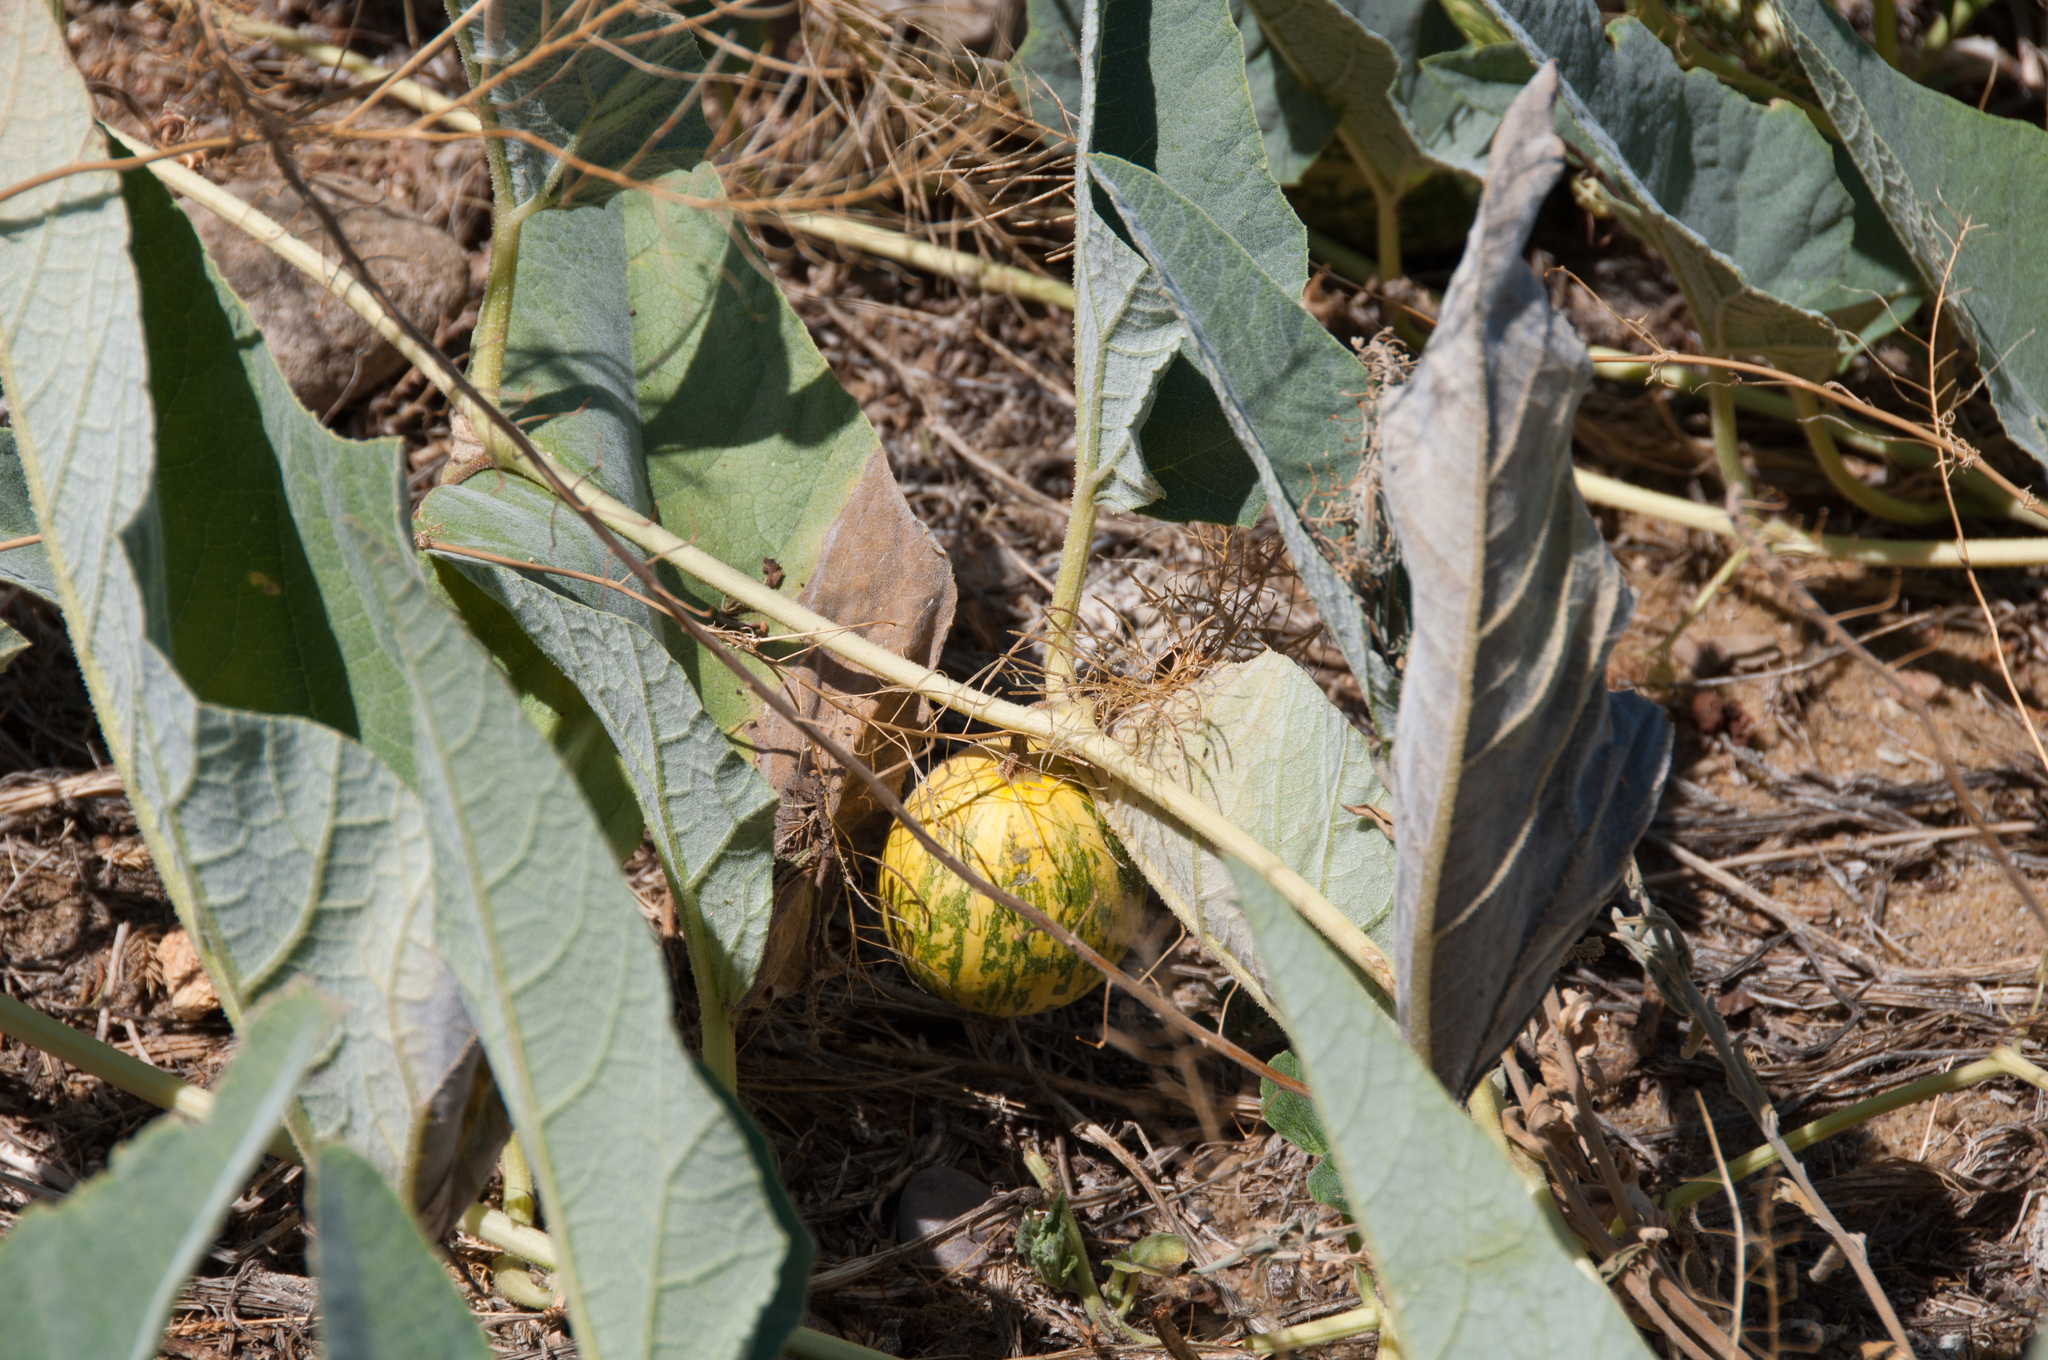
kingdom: Plantae
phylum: Tracheophyta
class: Magnoliopsida
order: Cucurbitales
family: Cucurbitaceae
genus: Cucurbita
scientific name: Cucurbita foetidissima
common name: Buffalo gourd
